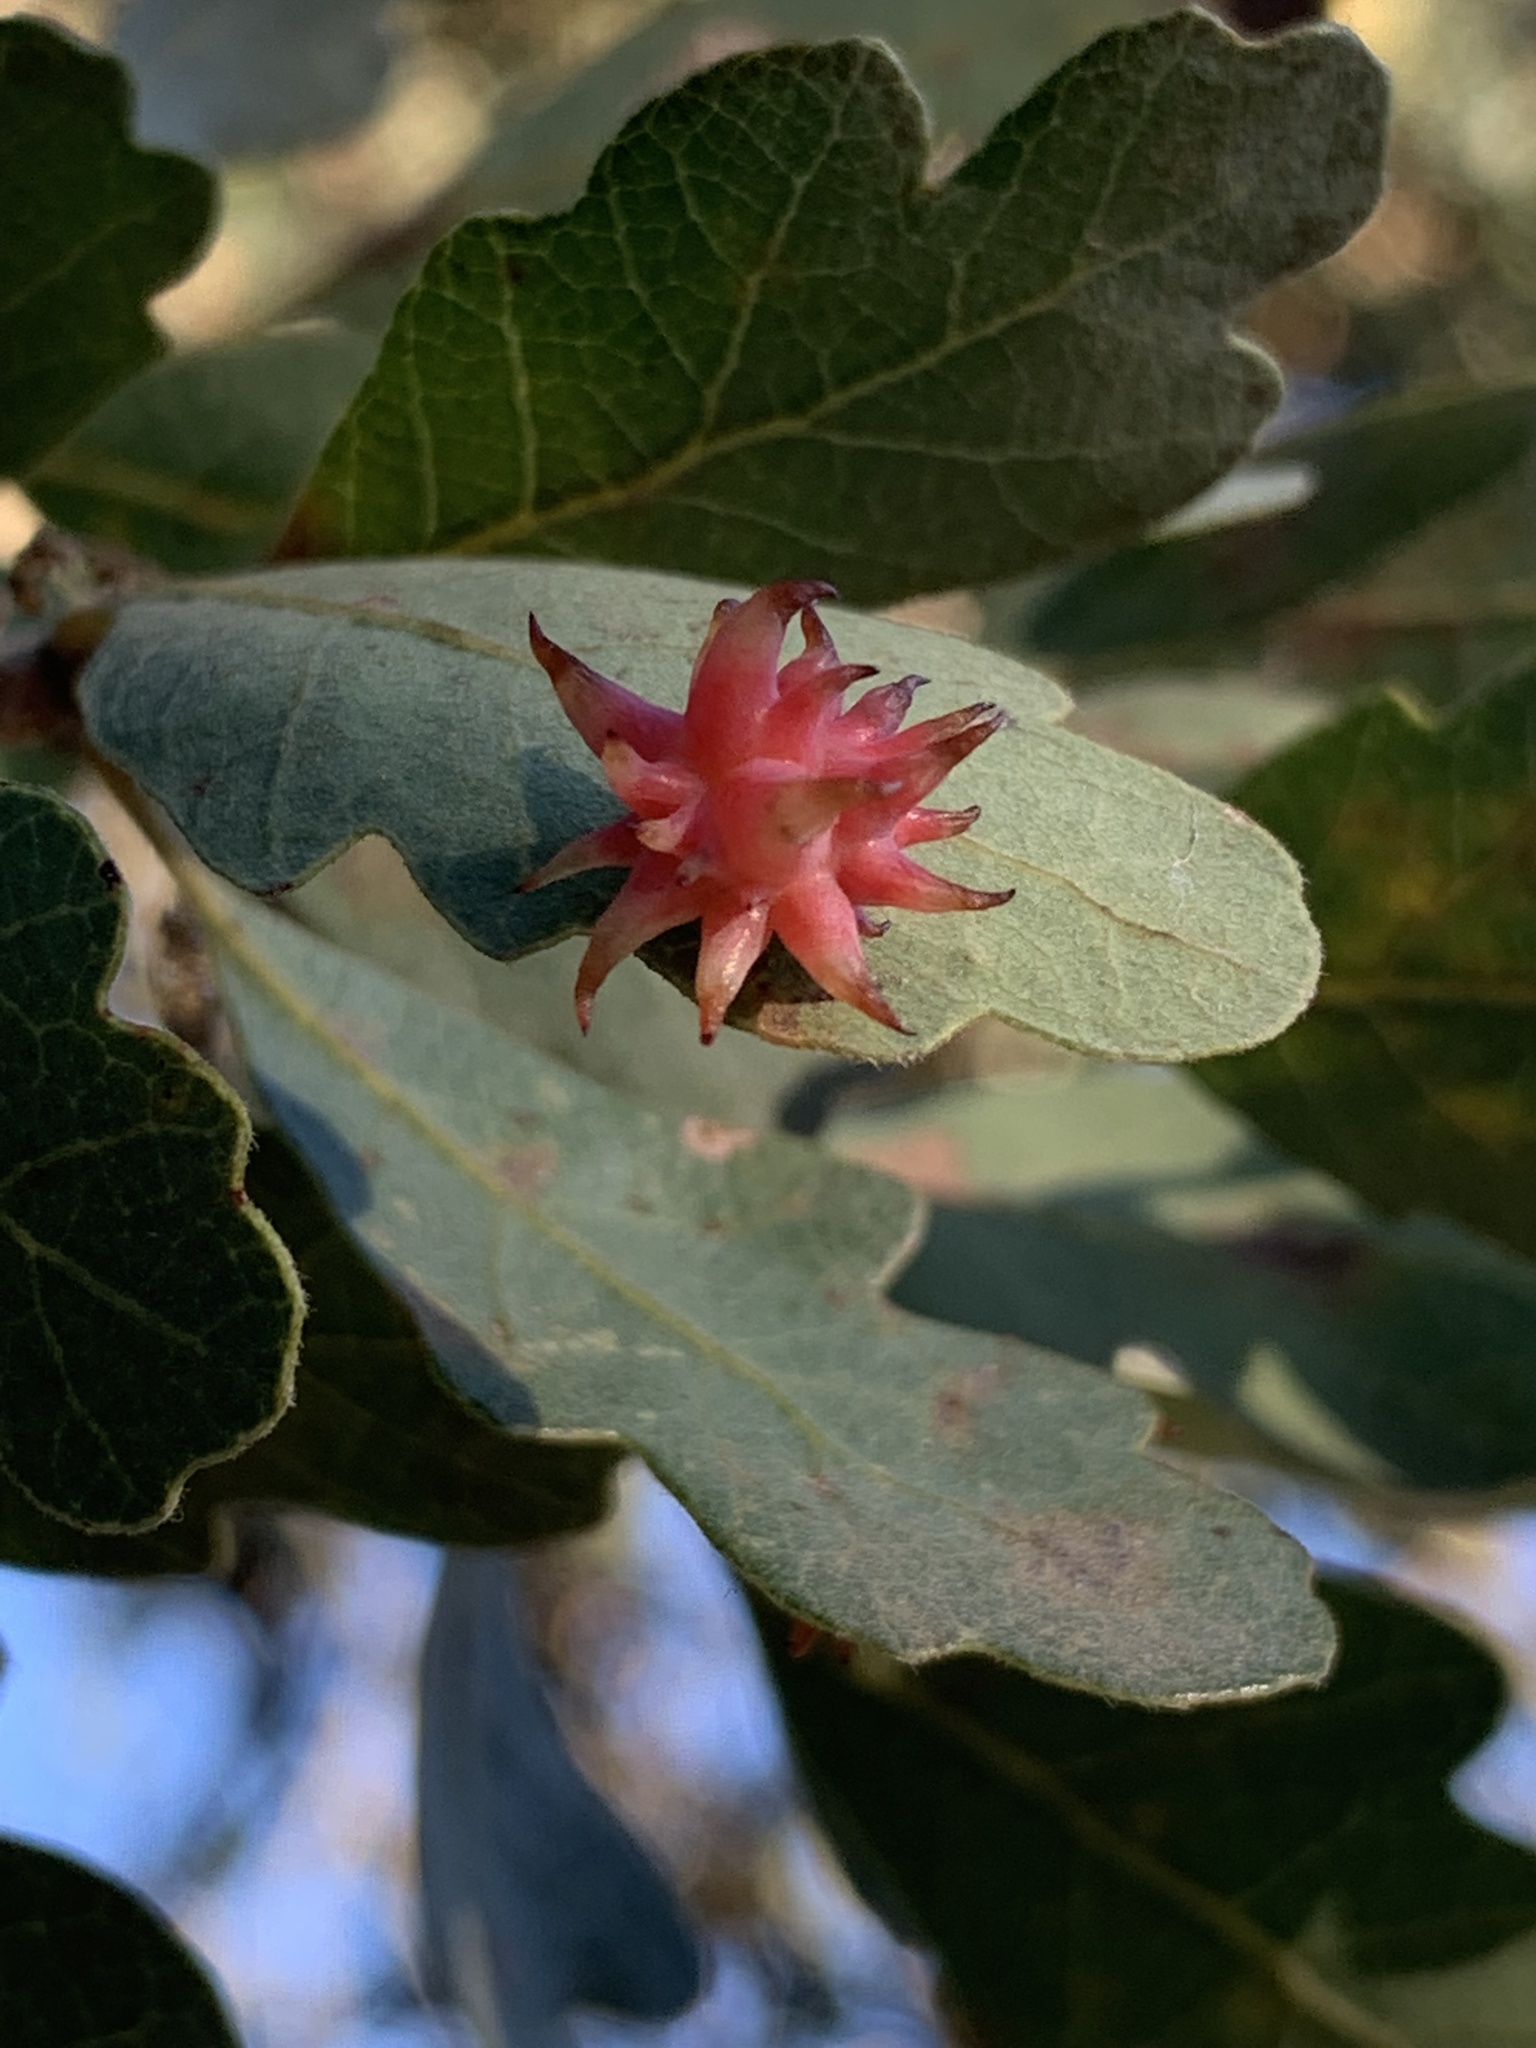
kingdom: Animalia
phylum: Arthropoda
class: Insecta
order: Hymenoptera
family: Cynipidae
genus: Cynips
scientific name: Cynips
